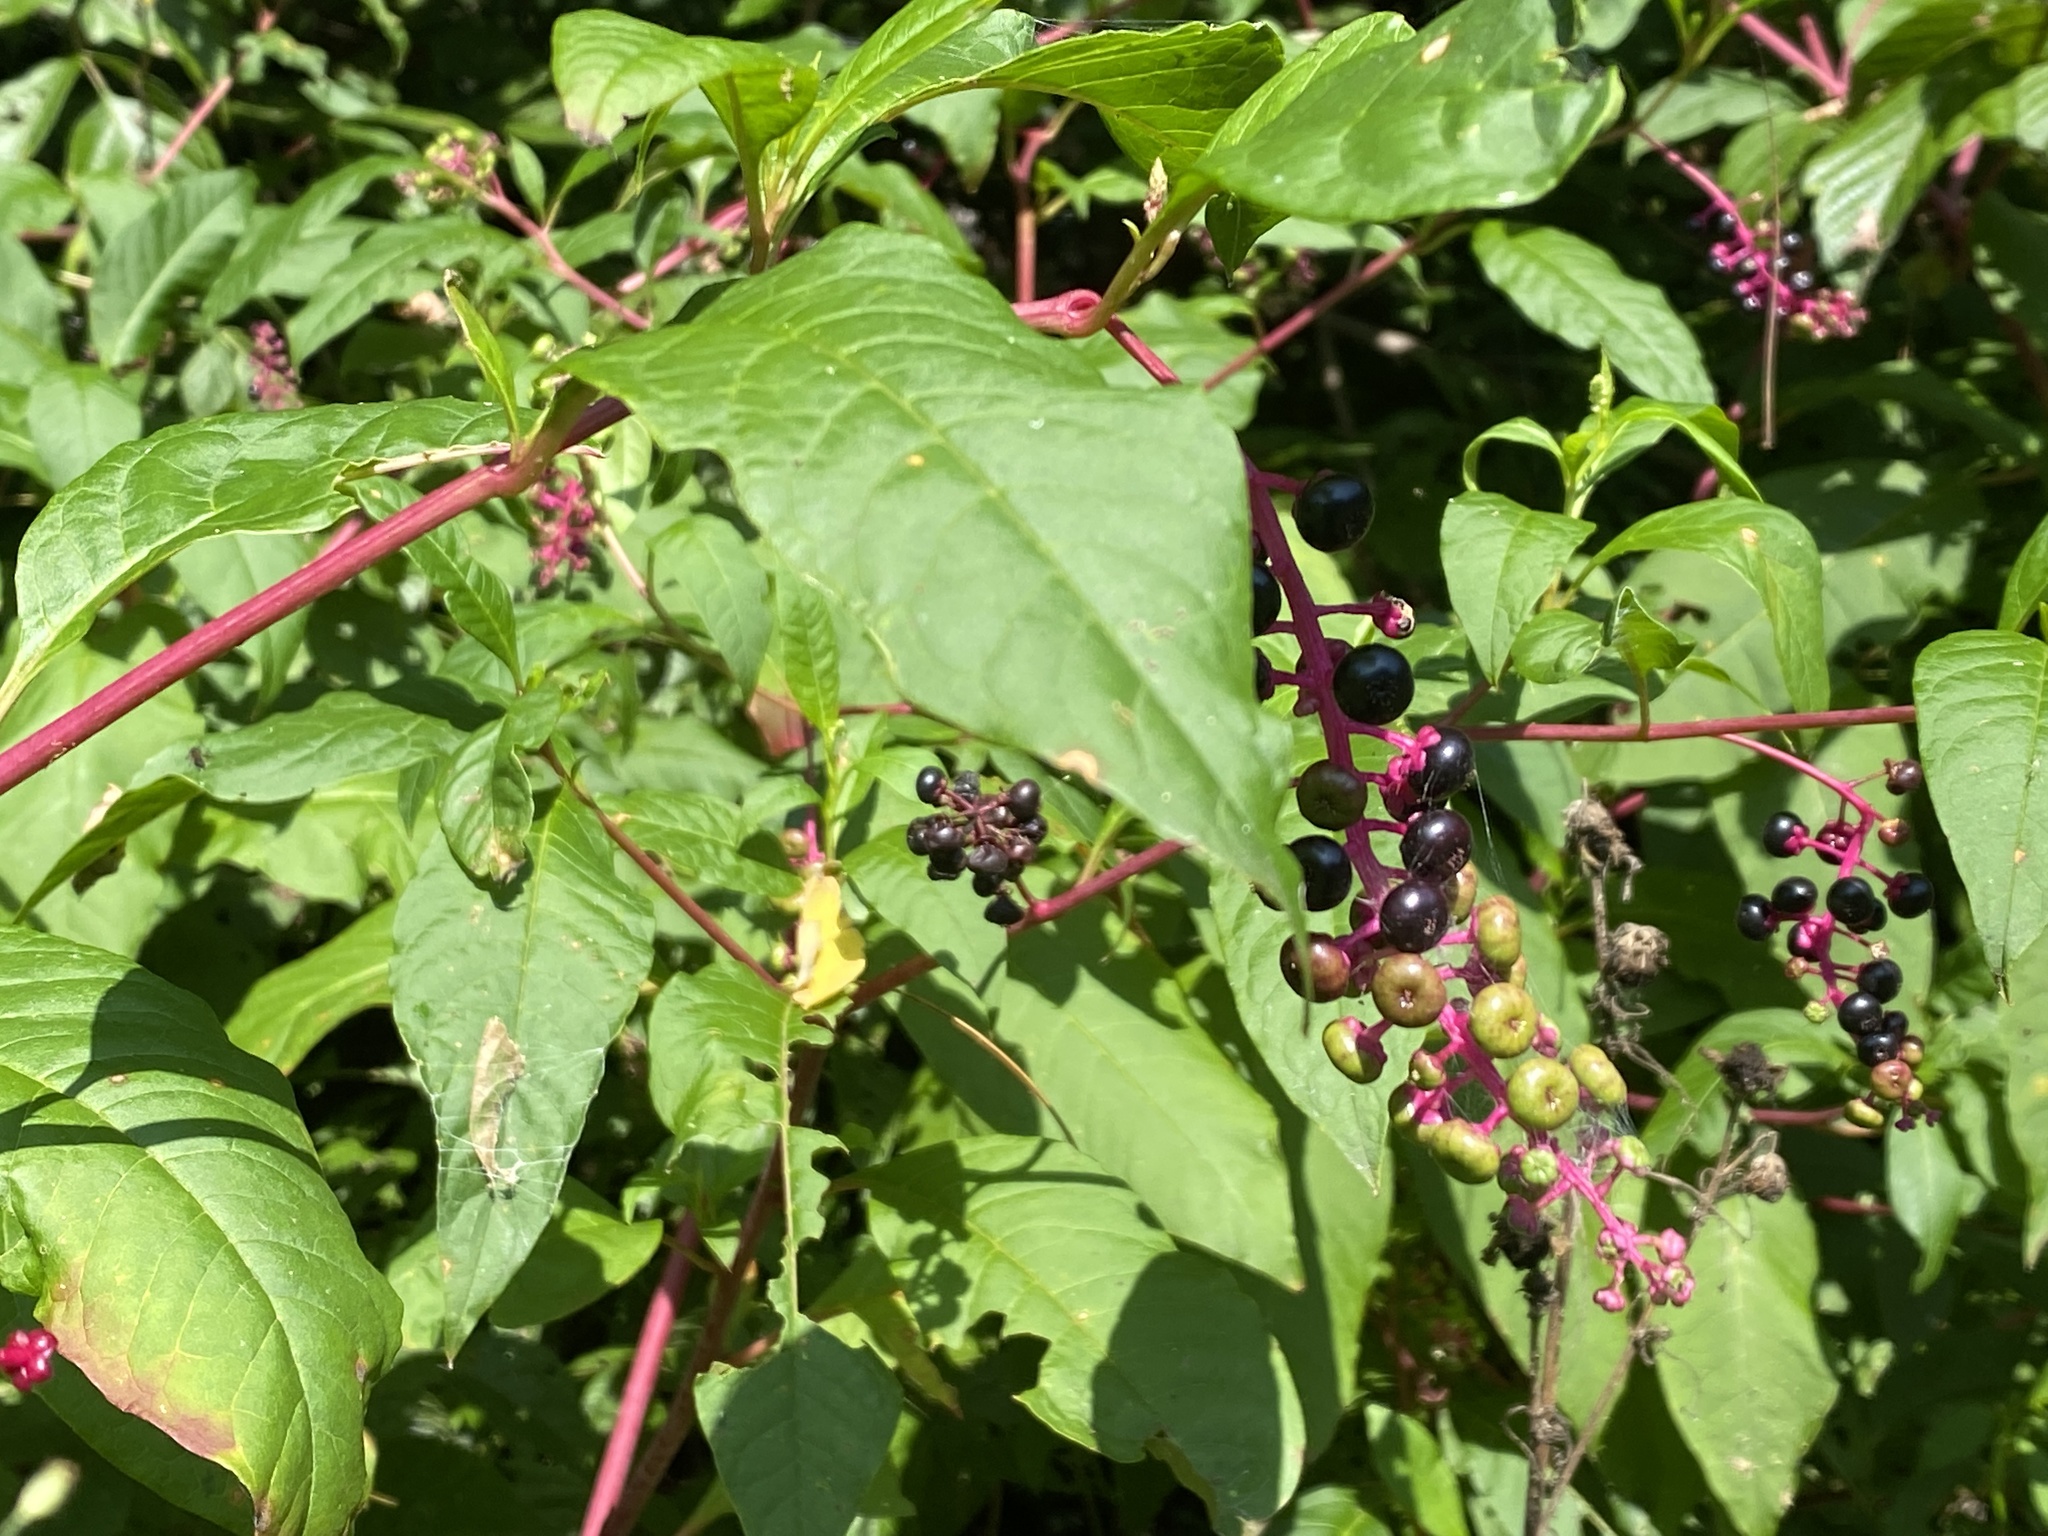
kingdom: Plantae
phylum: Tracheophyta
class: Magnoliopsida
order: Caryophyllales
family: Phytolaccaceae
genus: Phytolacca
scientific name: Phytolacca americana
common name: American pokeweed
